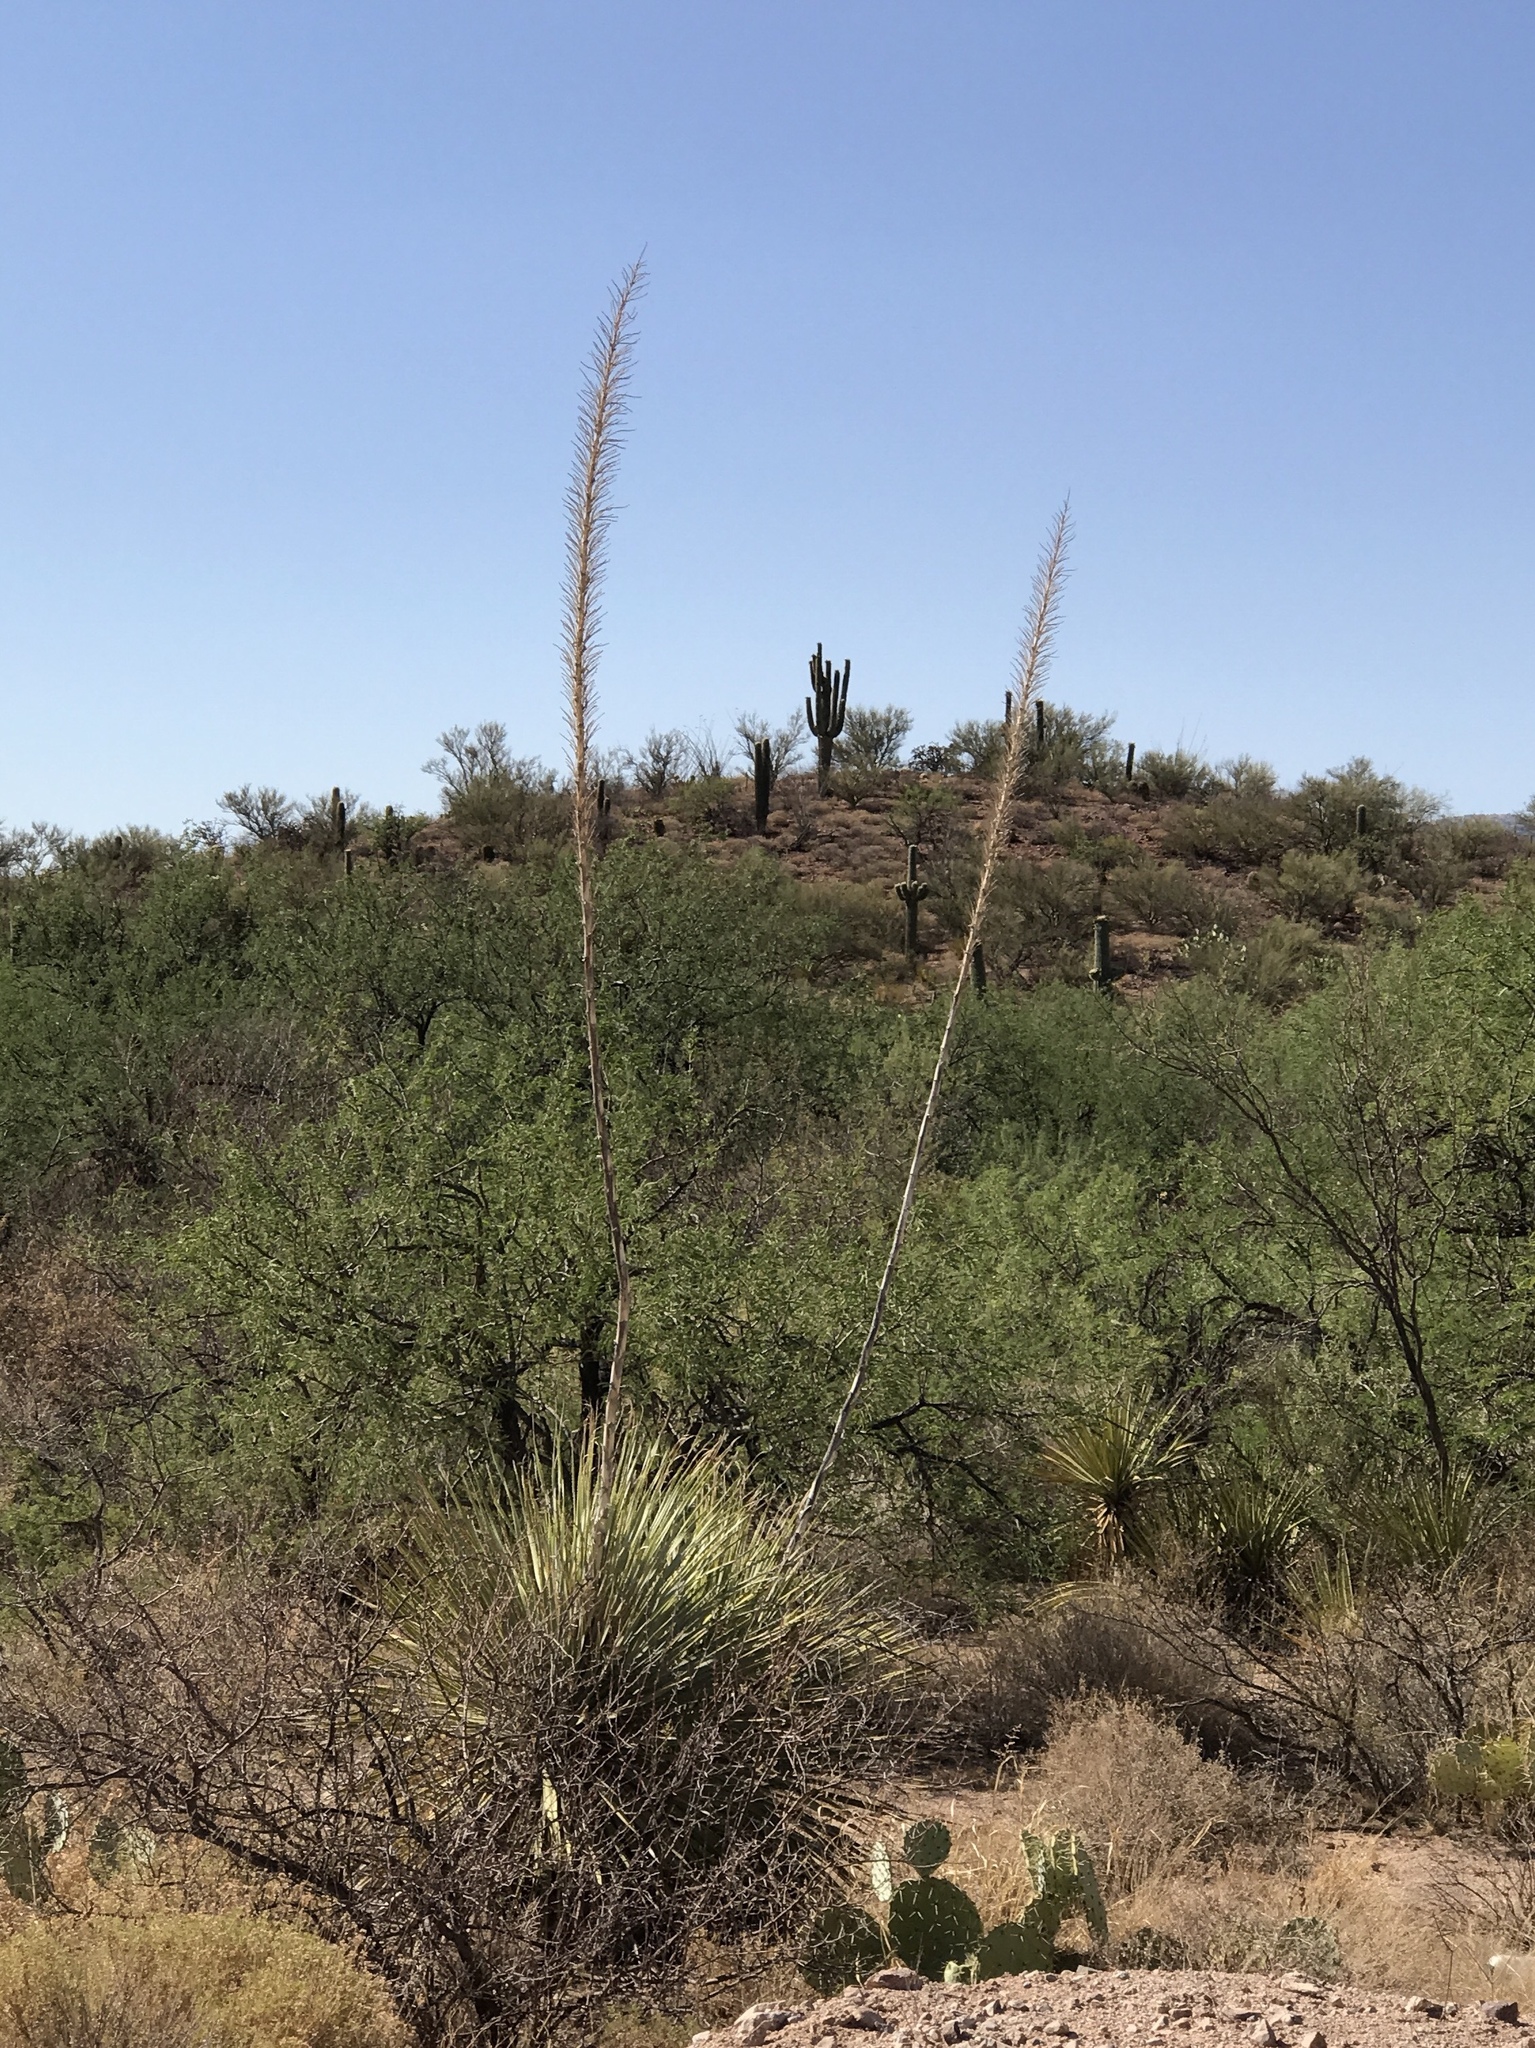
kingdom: Plantae
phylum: Tracheophyta
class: Liliopsida
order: Asparagales
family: Asparagaceae
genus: Dasylirion
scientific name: Dasylirion wheeleri
